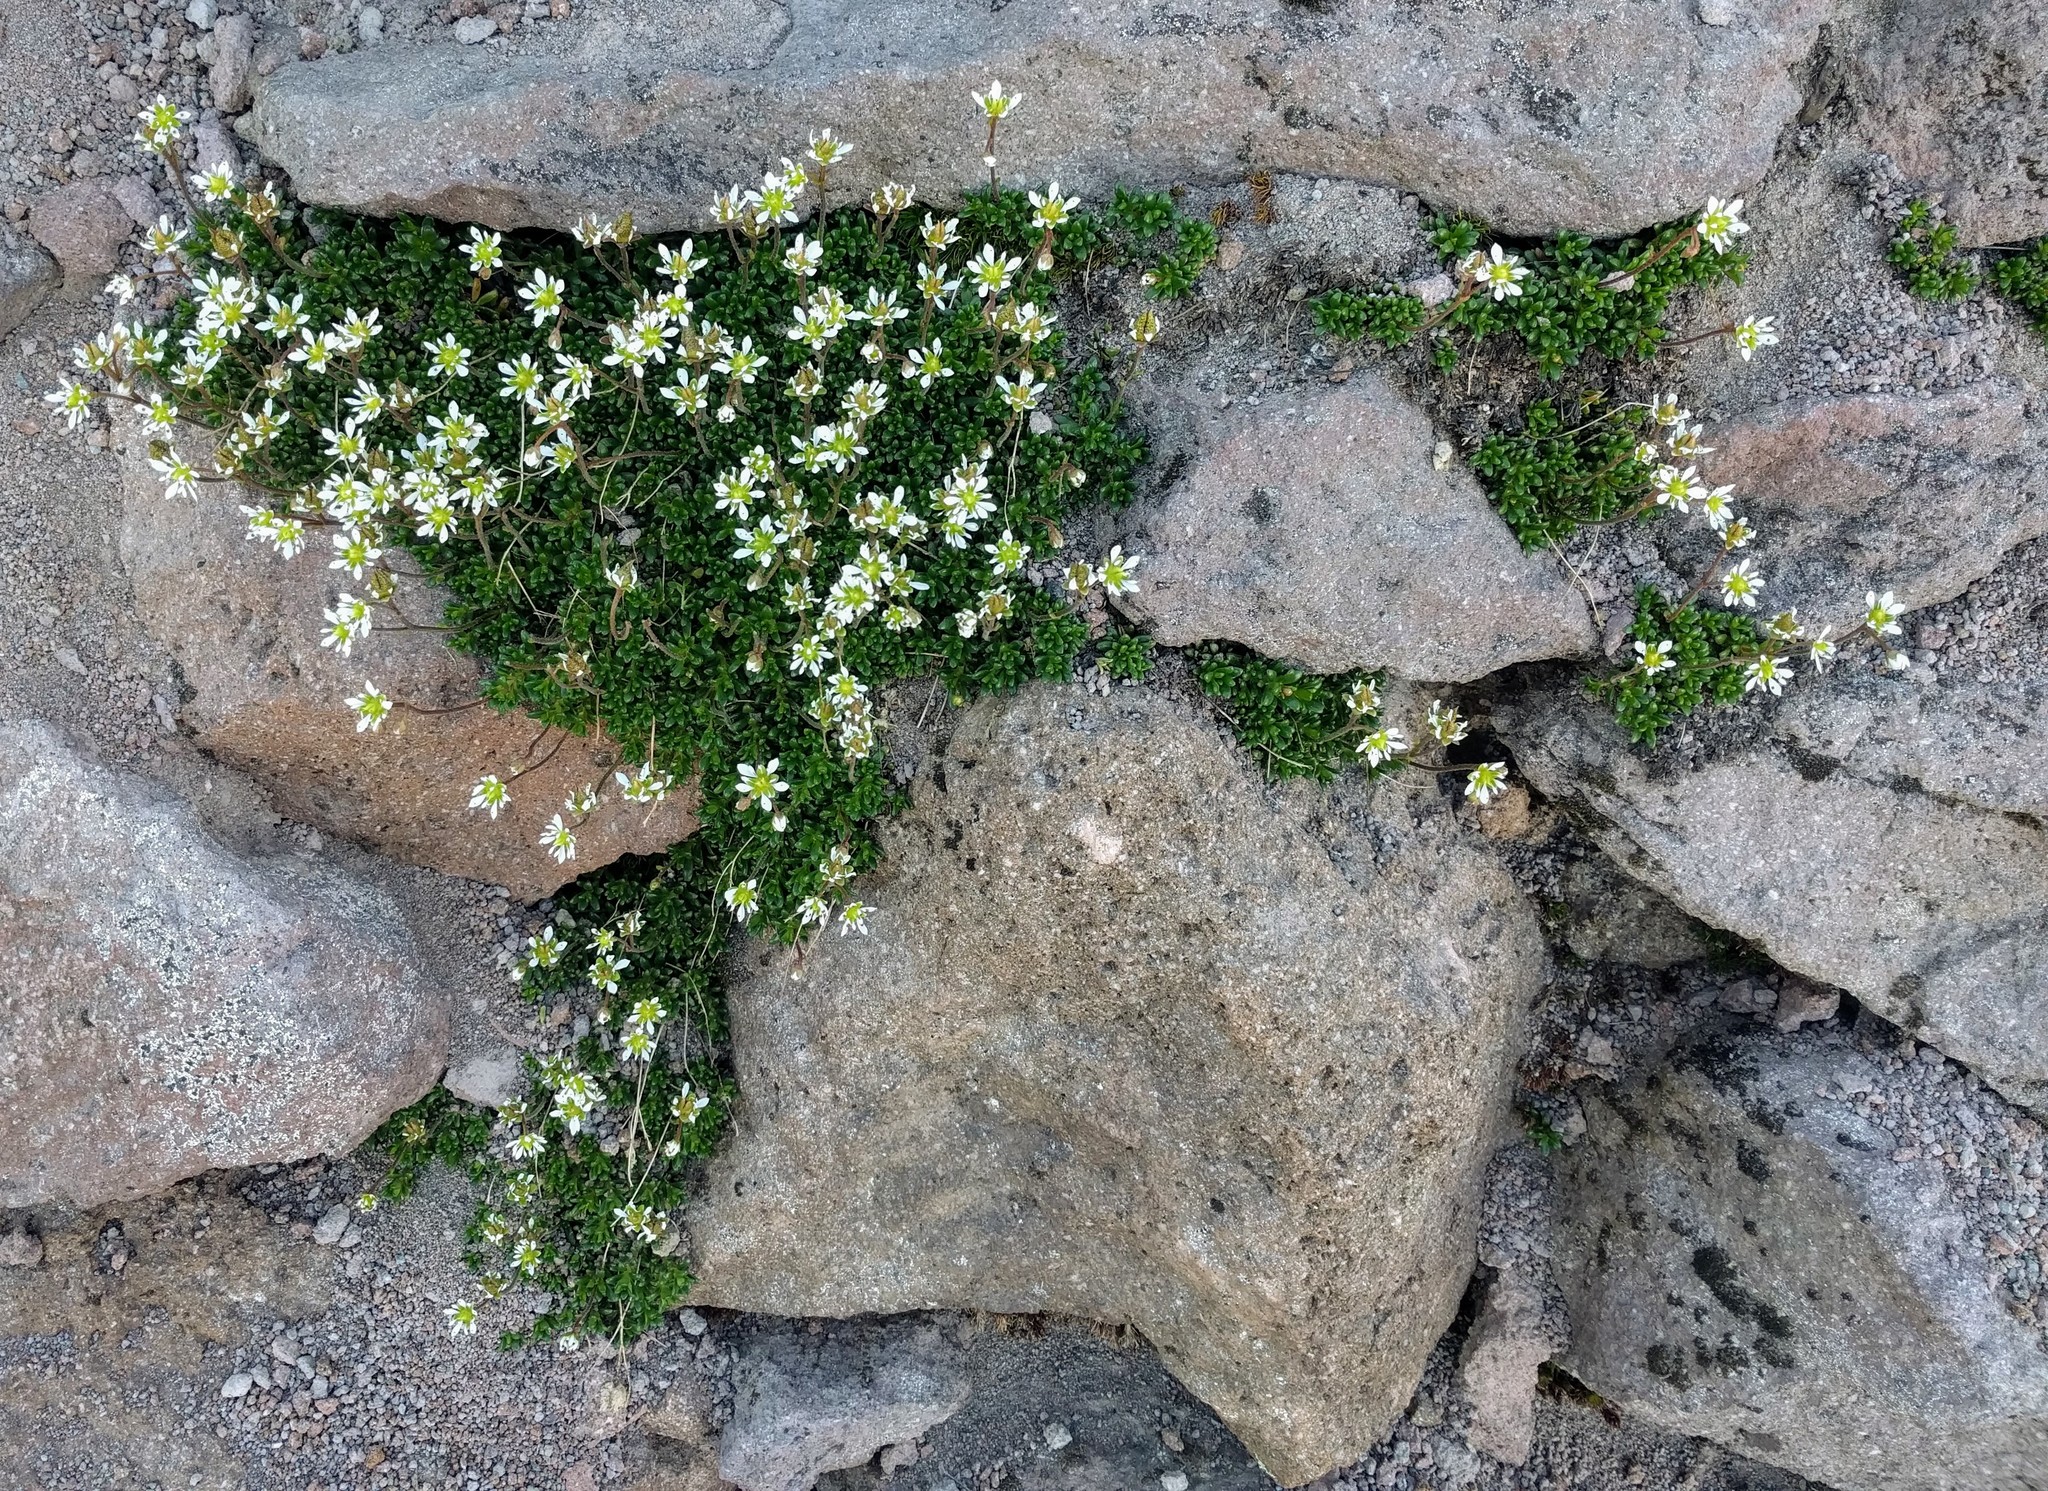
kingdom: Plantae
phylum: Tracheophyta
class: Magnoliopsida
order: Saxifragales
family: Saxifragaceae
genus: Micranthes
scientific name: Micranthes tolmiei
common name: Tolmie's saxifrage
